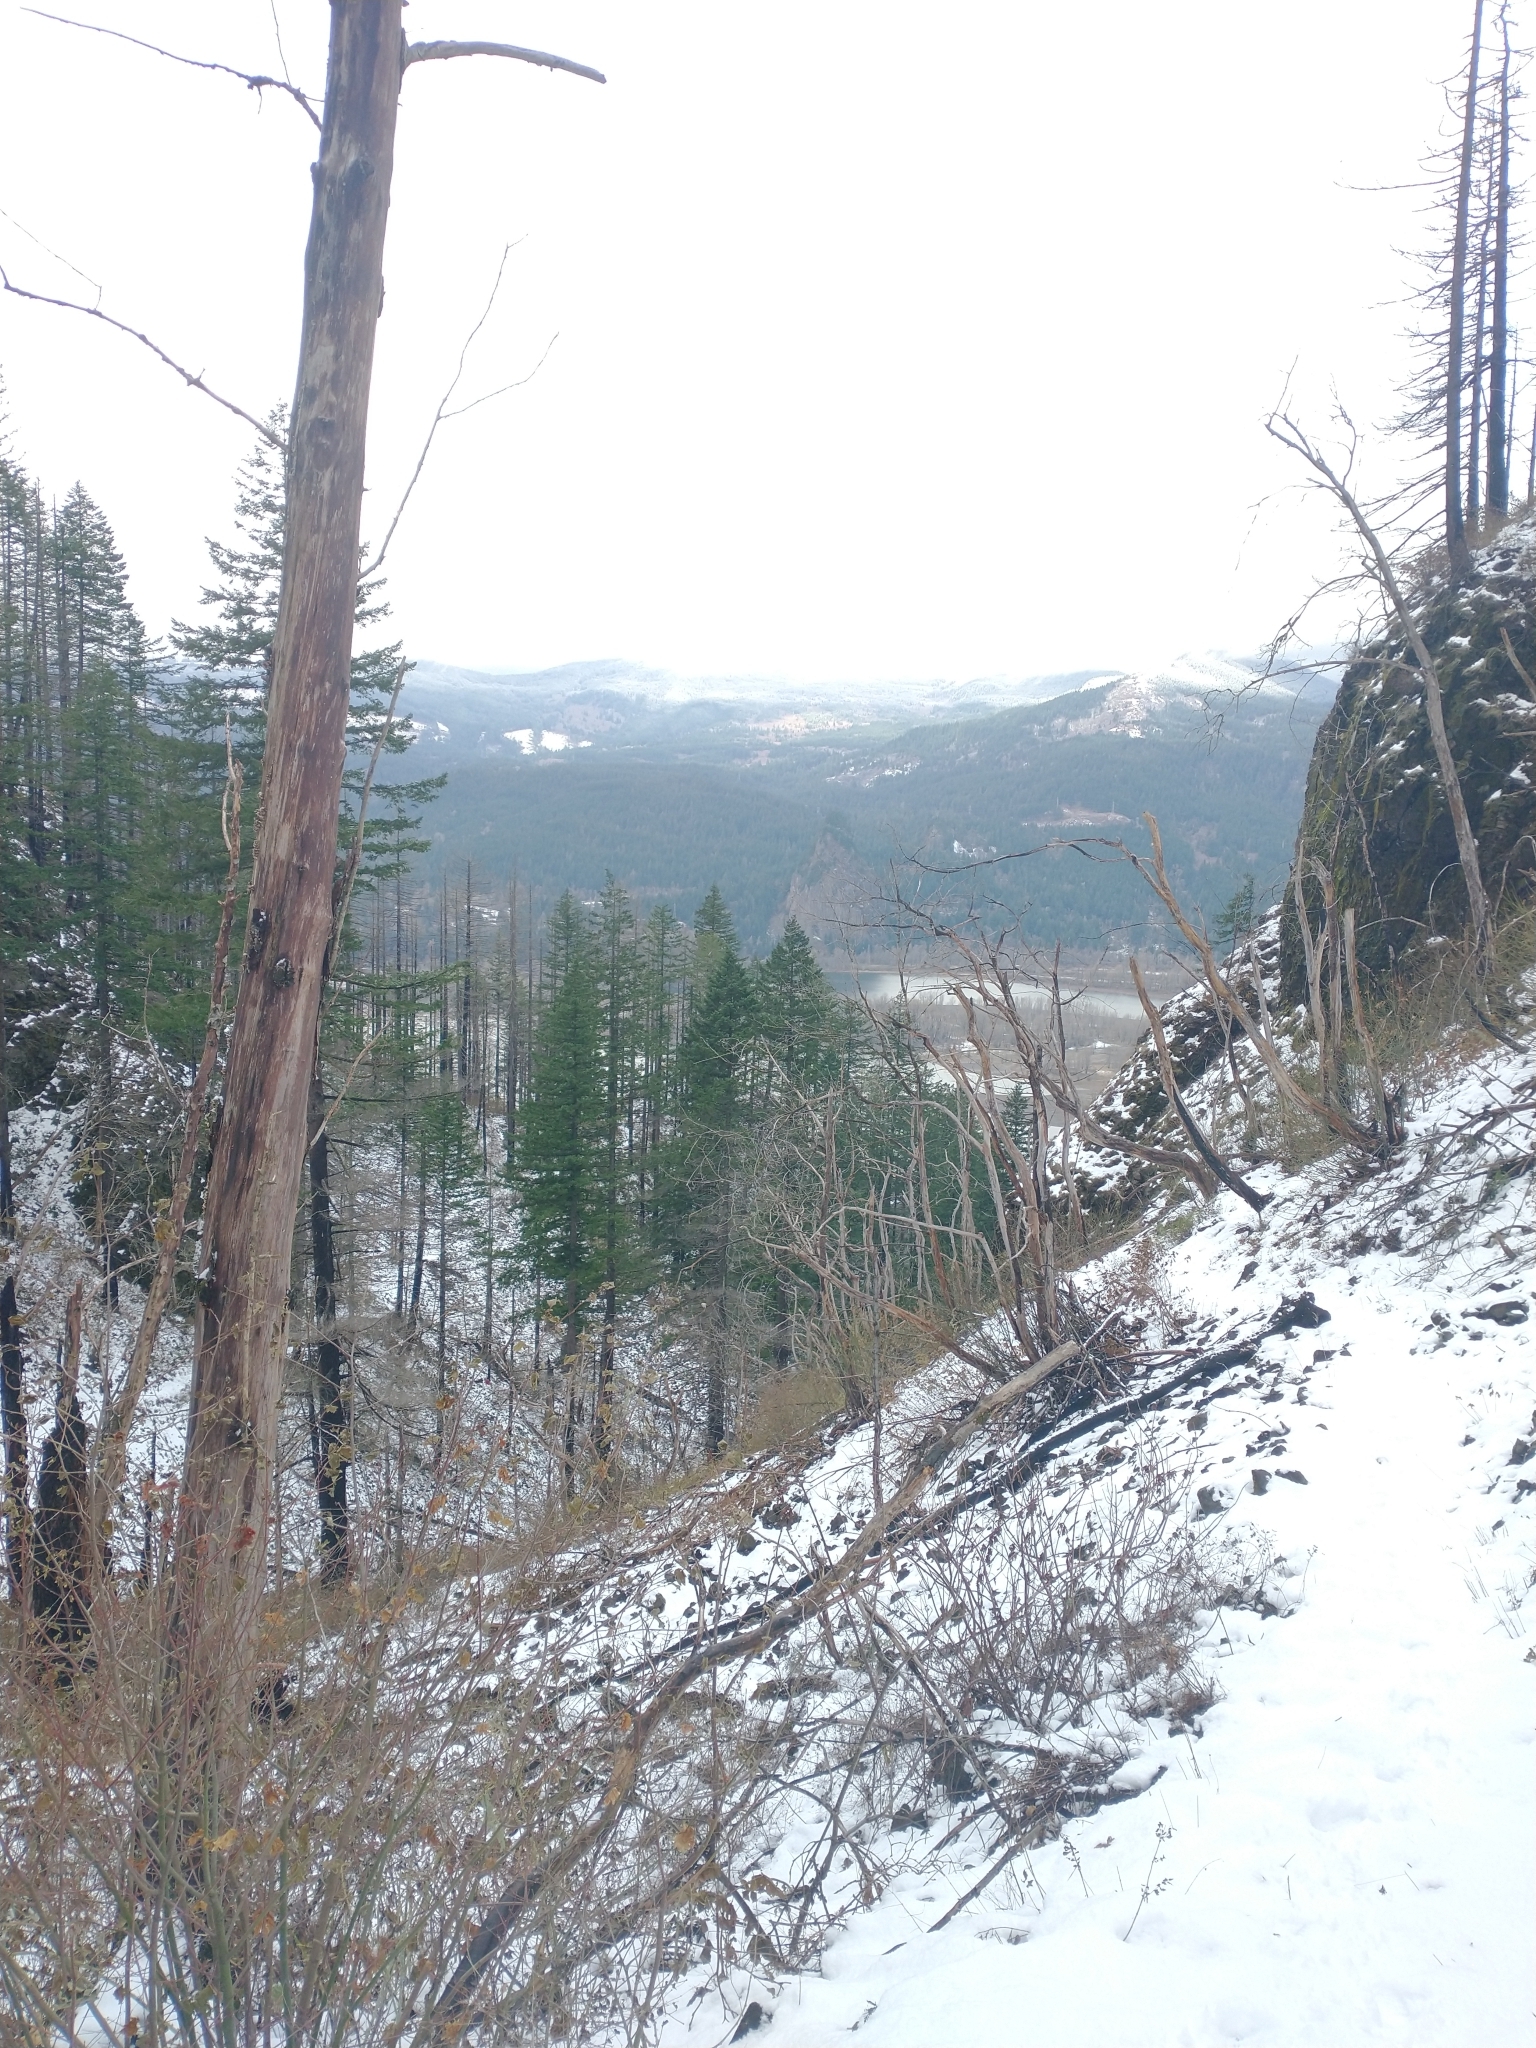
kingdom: Plantae
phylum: Tracheophyta
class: Magnoliopsida
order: Sapindales
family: Sapindaceae
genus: Acer
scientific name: Acer macrophyllum
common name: Oregon maple
